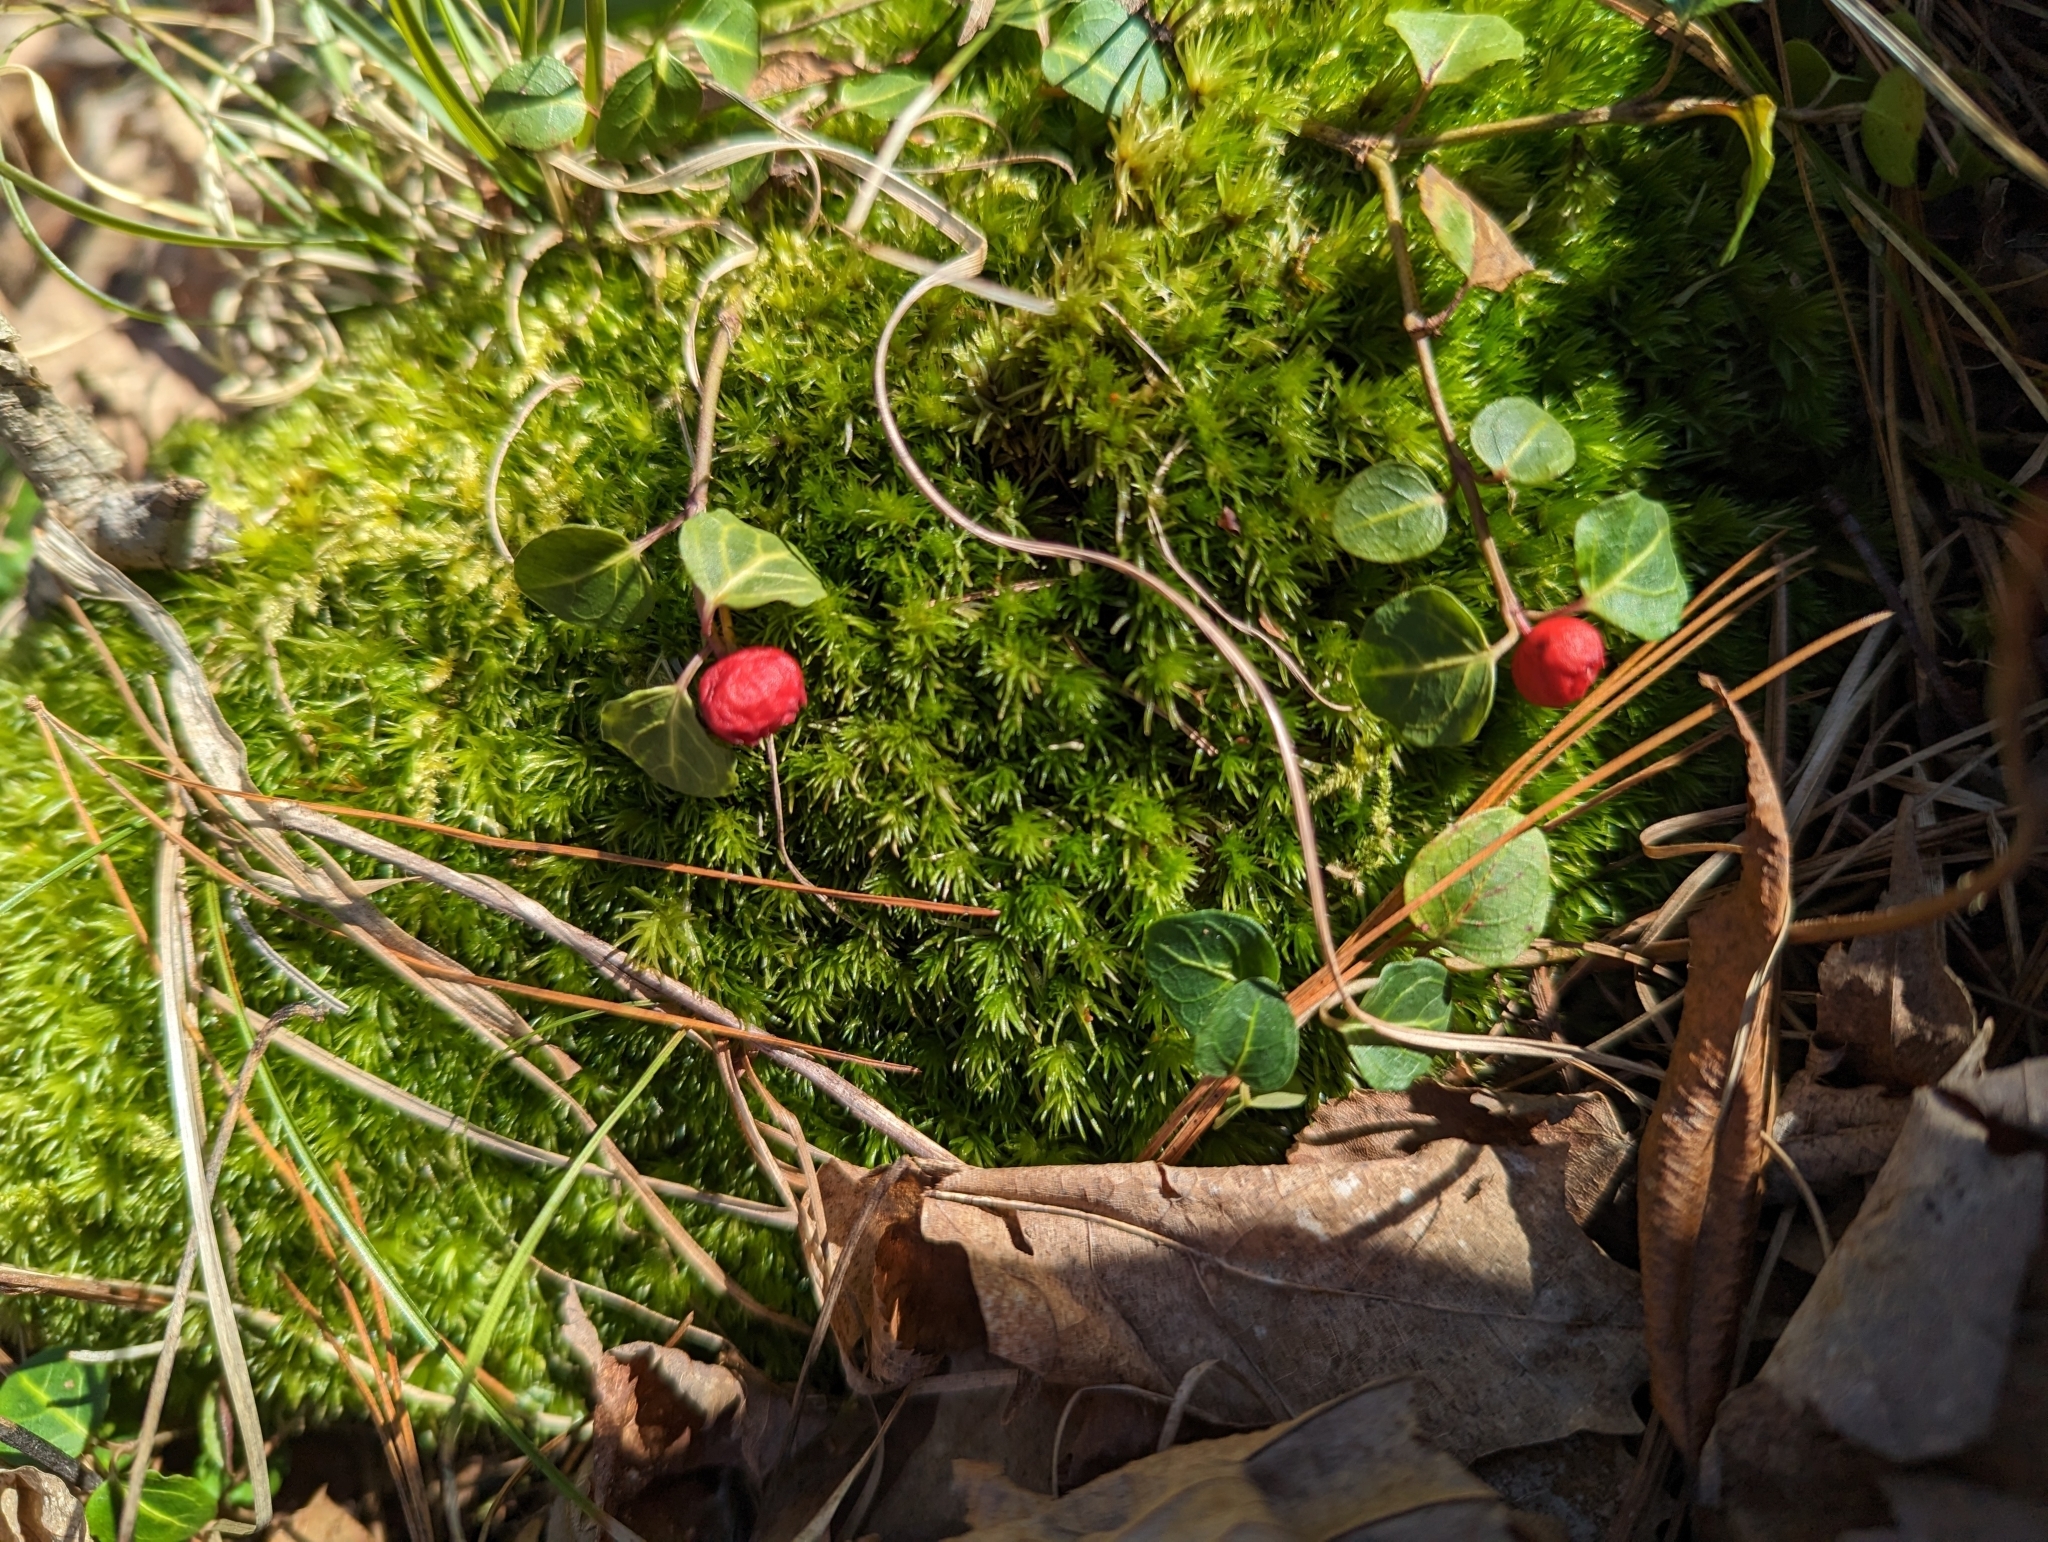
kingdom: Plantae
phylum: Tracheophyta
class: Magnoliopsida
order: Gentianales
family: Rubiaceae
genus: Mitchella
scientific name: Mitchella repens
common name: Partridge-berry
